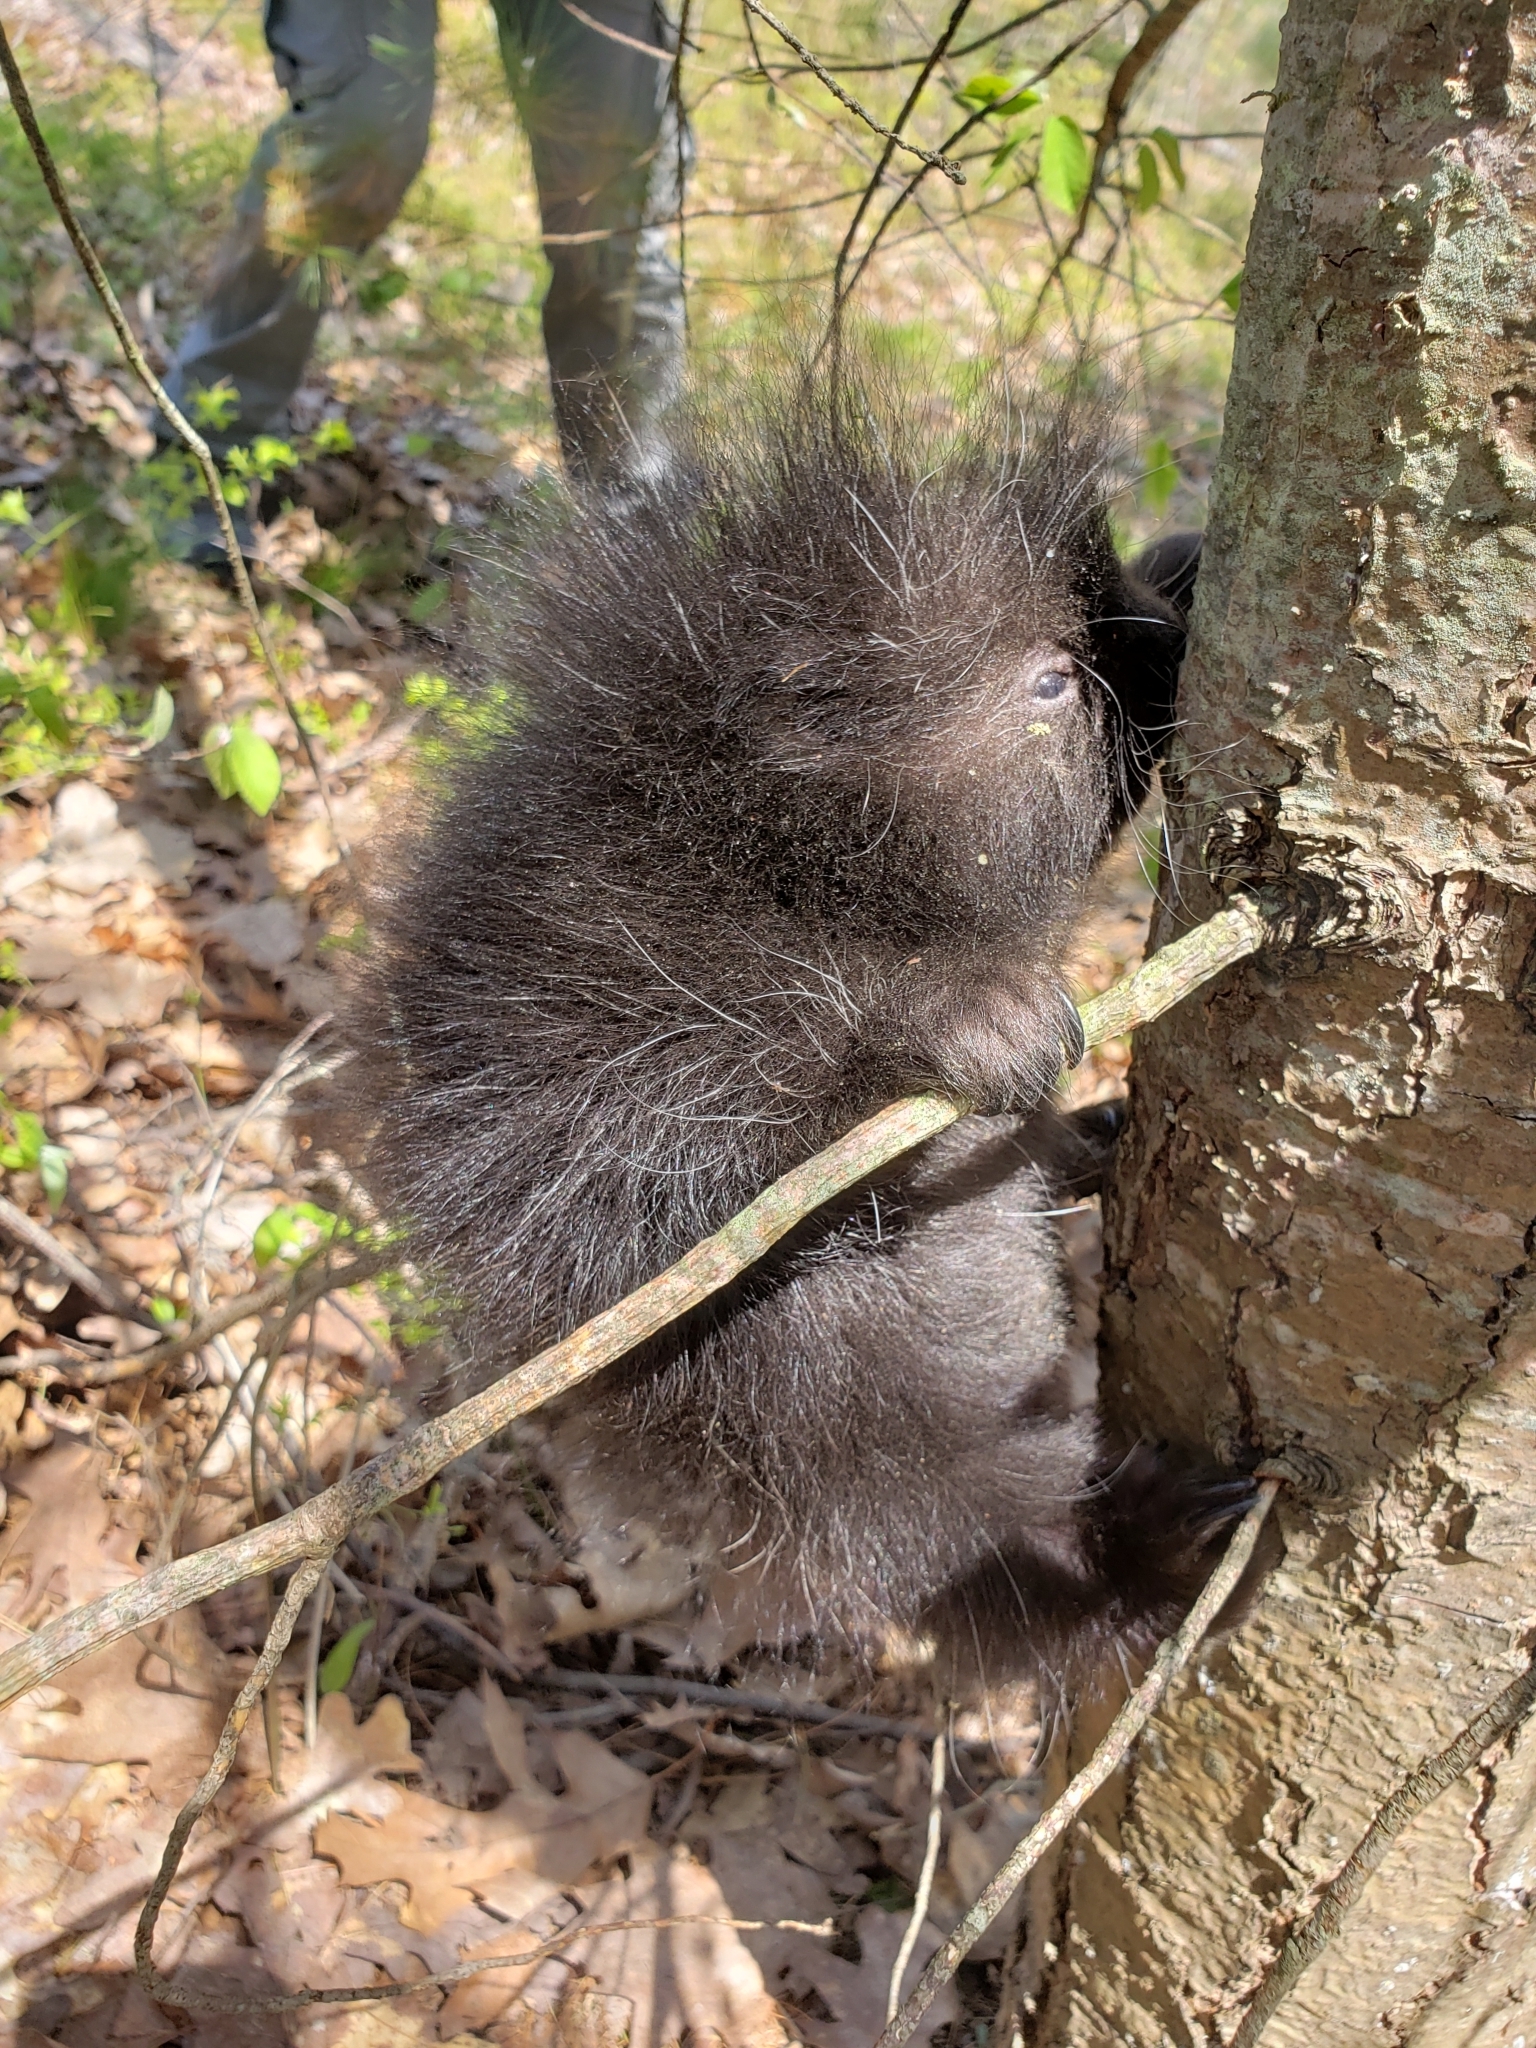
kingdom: Animalia
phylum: Chordata
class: Mammalia
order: Rodentia
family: Erethizontidae
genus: Erethizon
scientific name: Erethizon dorsatus
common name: North american porcupine
